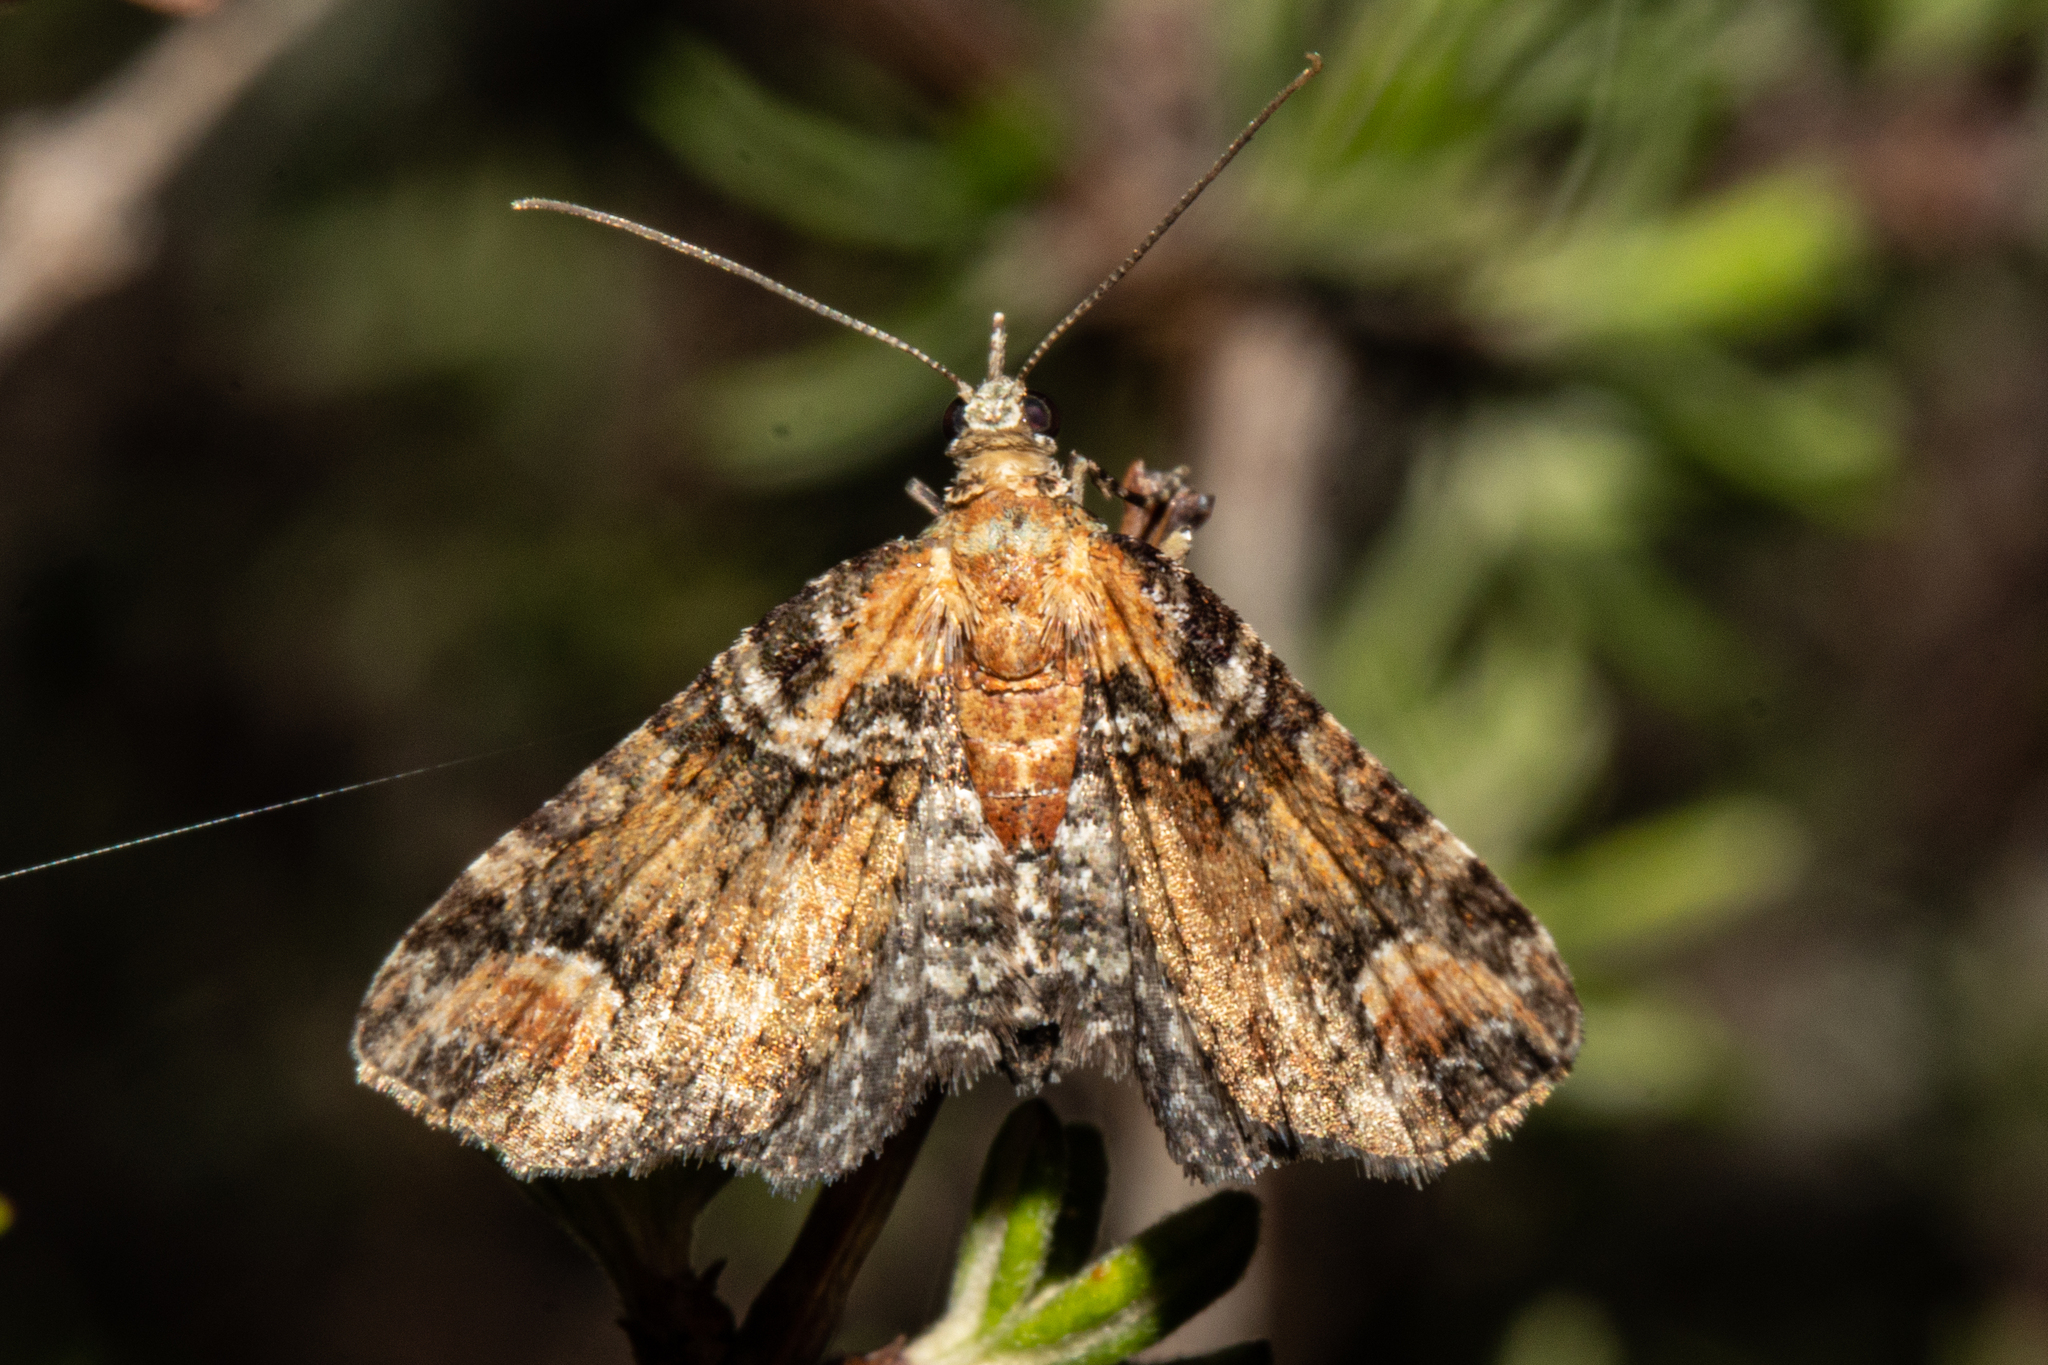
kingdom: Animalia
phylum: Arthropoda
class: Insecta
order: Lepidoptera
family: Geometridae
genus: Idaea
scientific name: Idaea mutanda
